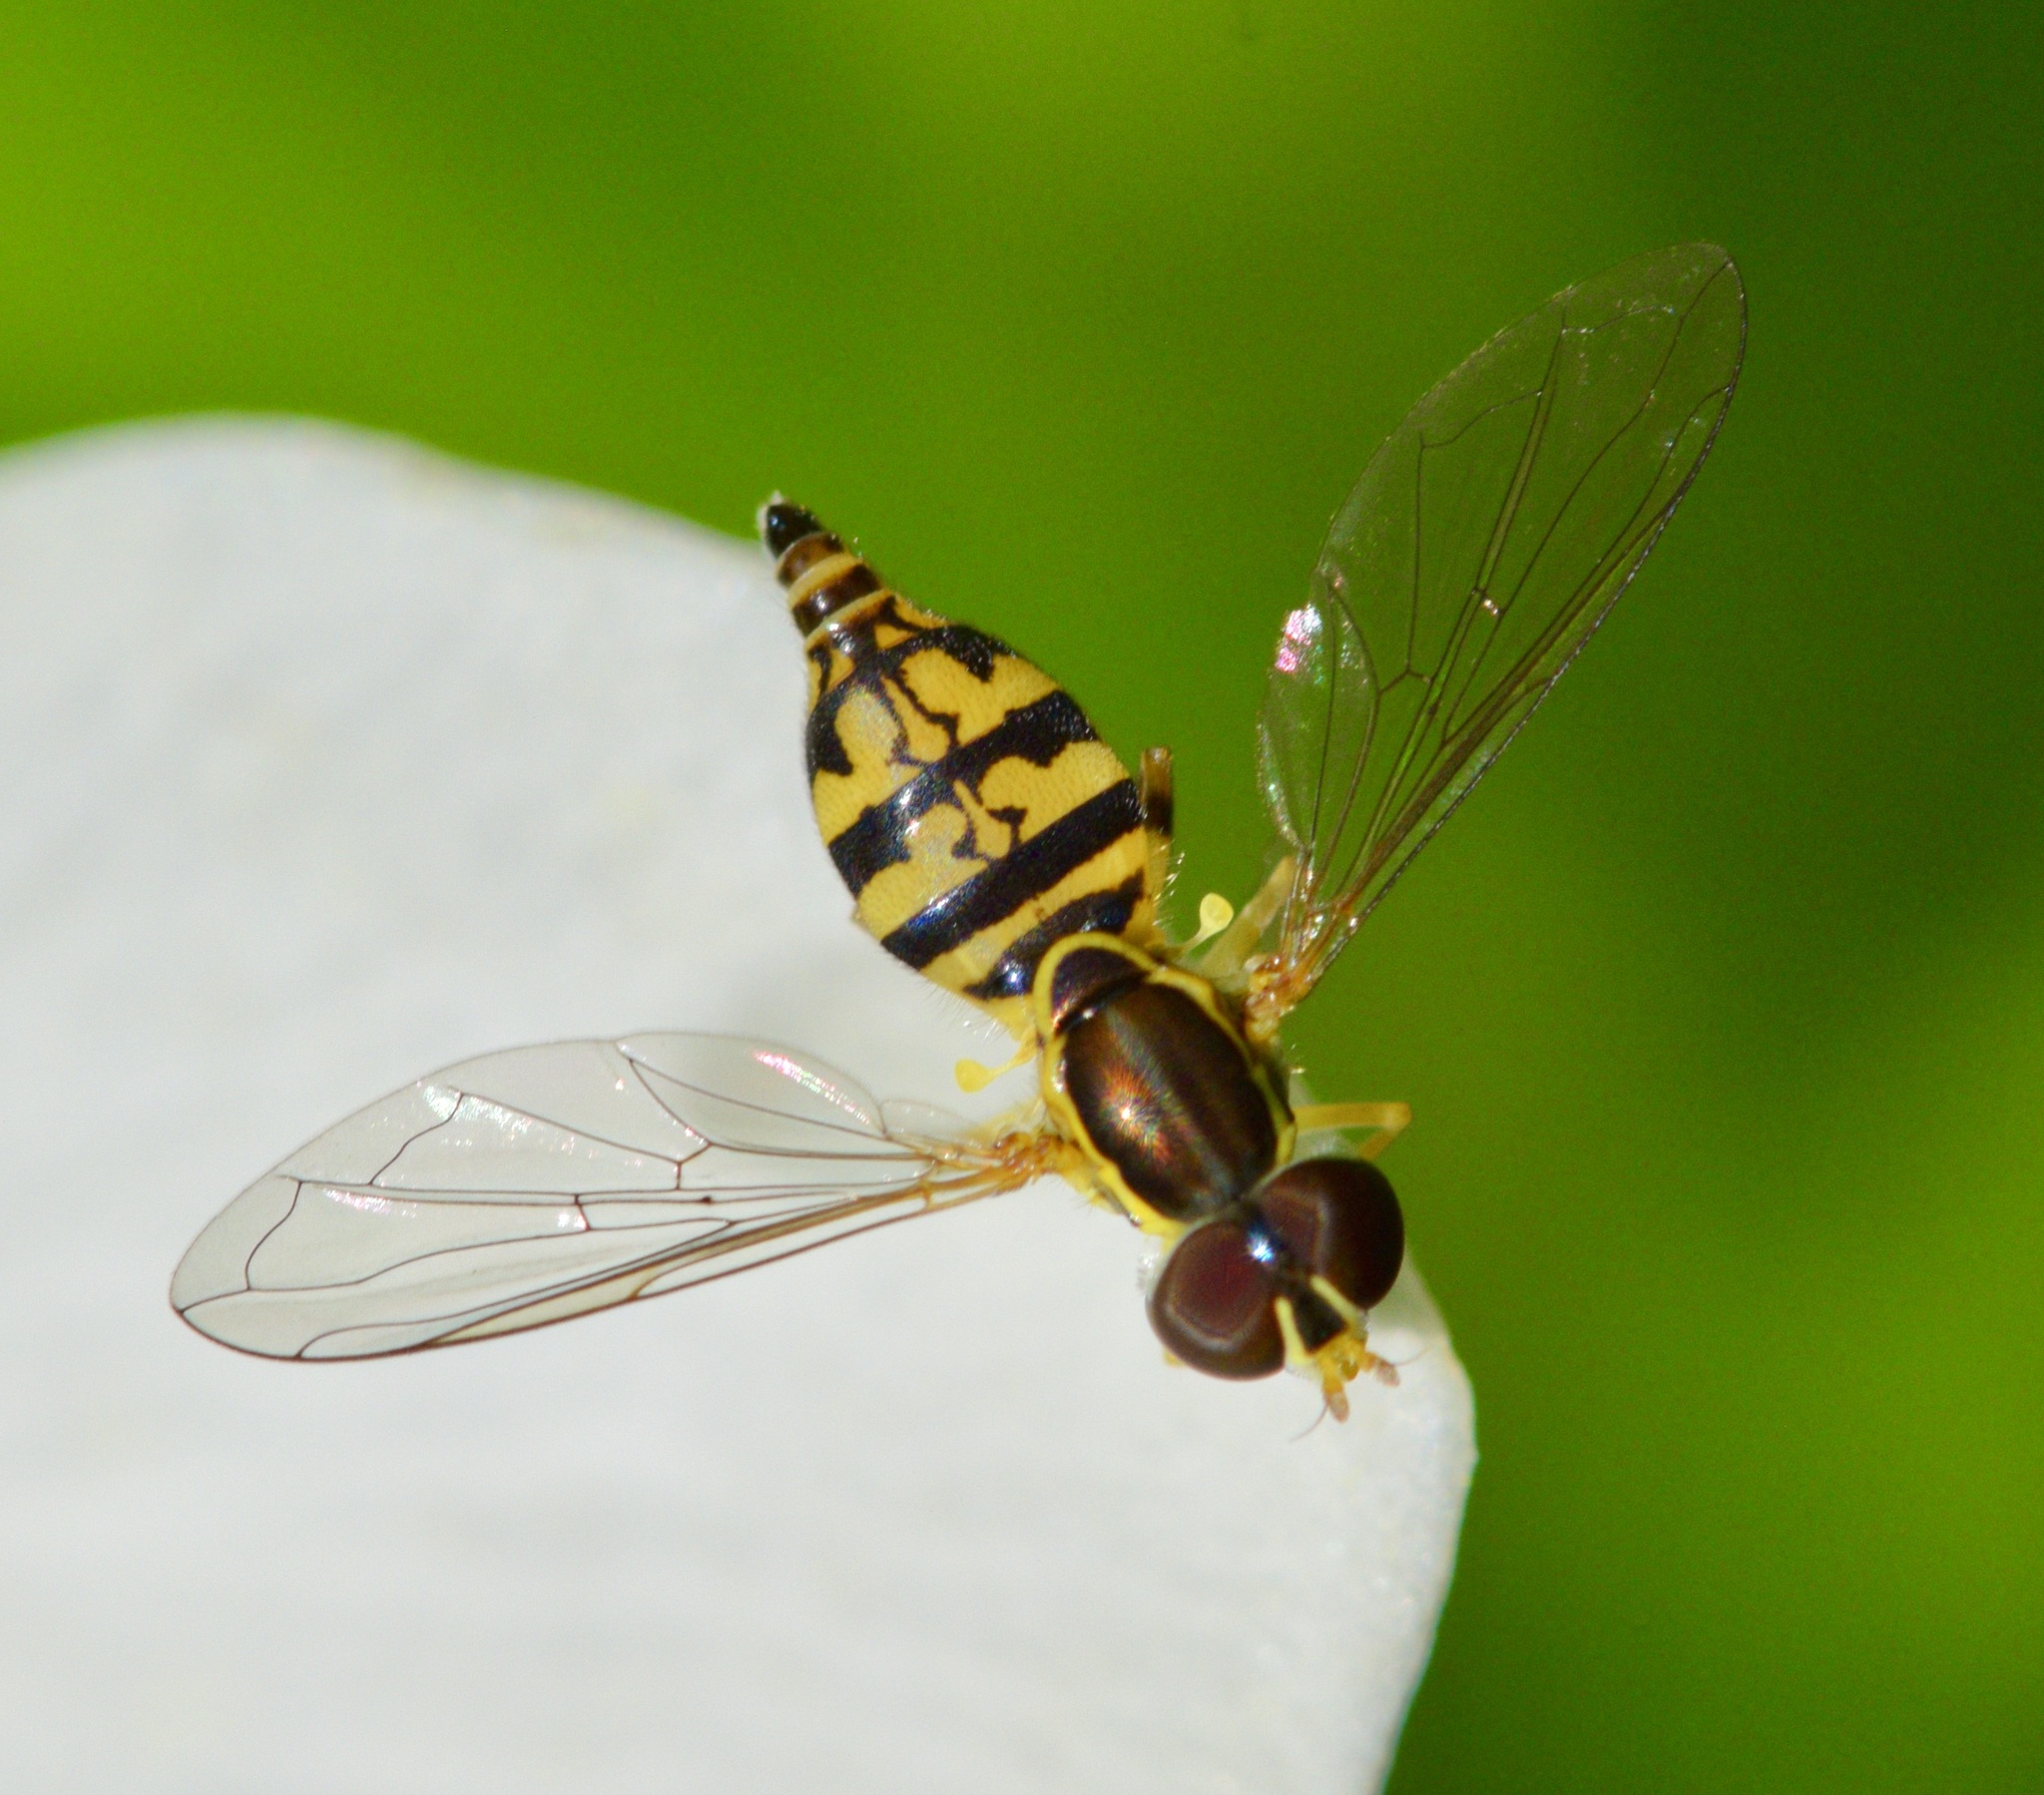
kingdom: Animalia
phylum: Arthropoda
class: Insecta
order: Diptera
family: Syrphidae
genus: Toxomerus
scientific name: Toxomerus geminatus
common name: Eastern calligrapher
